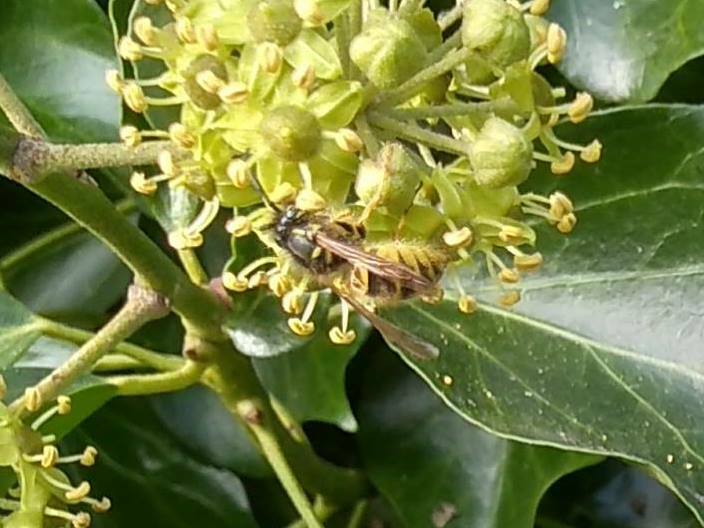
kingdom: Animalia
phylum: Arthropoda
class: Insecta
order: Hymenoptera
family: Vespidae
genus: Vespula
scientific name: Vespula vulgaris
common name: Common wasp
